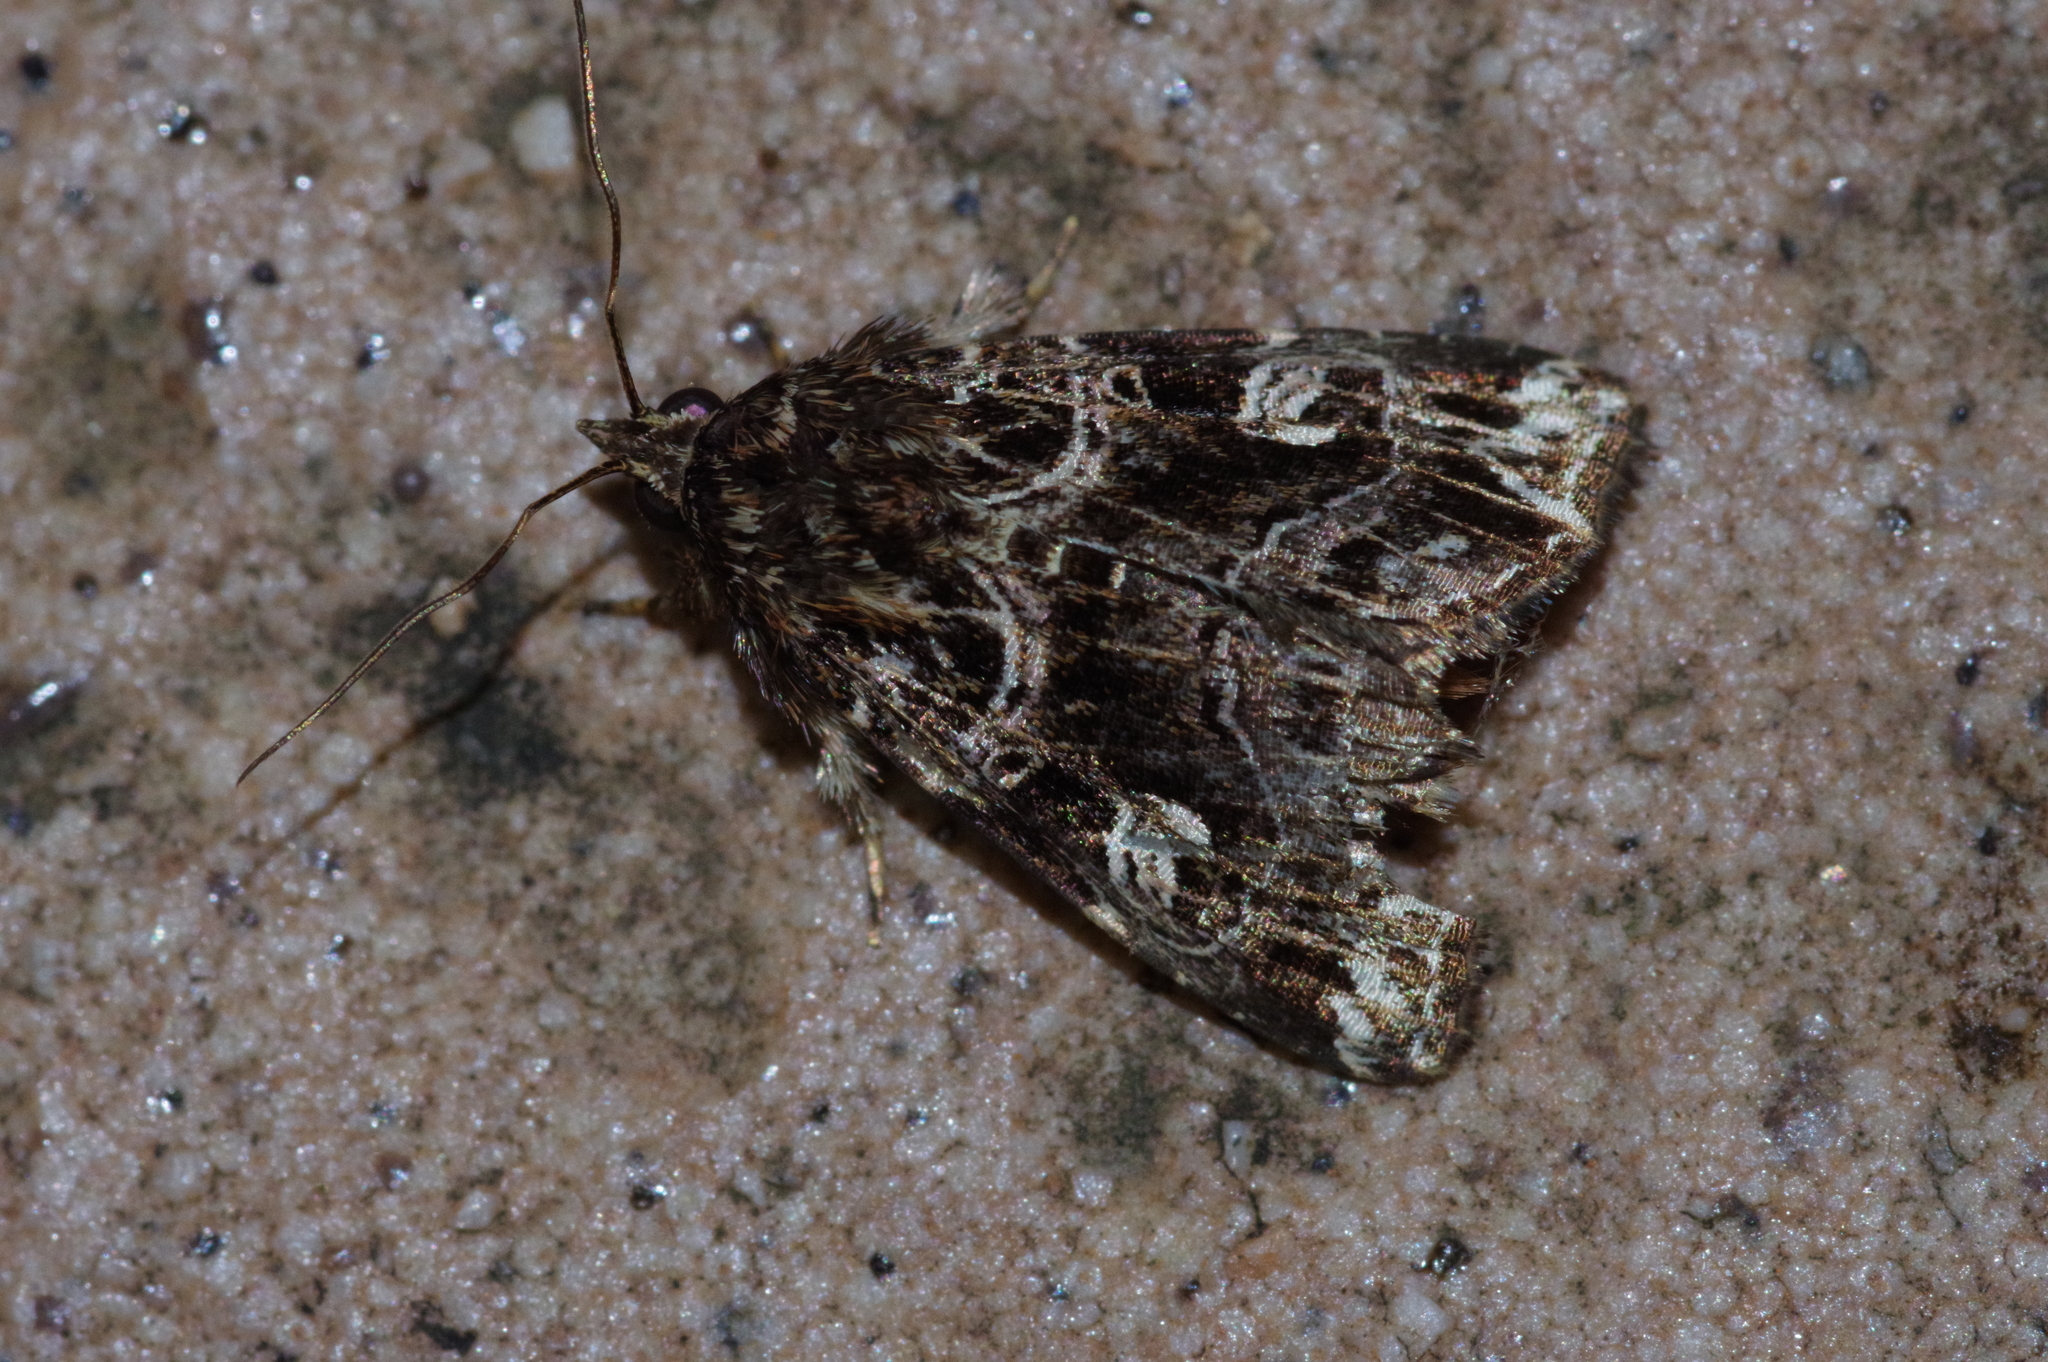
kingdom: Animalia
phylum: Arthropoda
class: Insecta
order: Lepidoptera
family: Noctuidae
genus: Callopistria
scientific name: Callopistria duplicans
